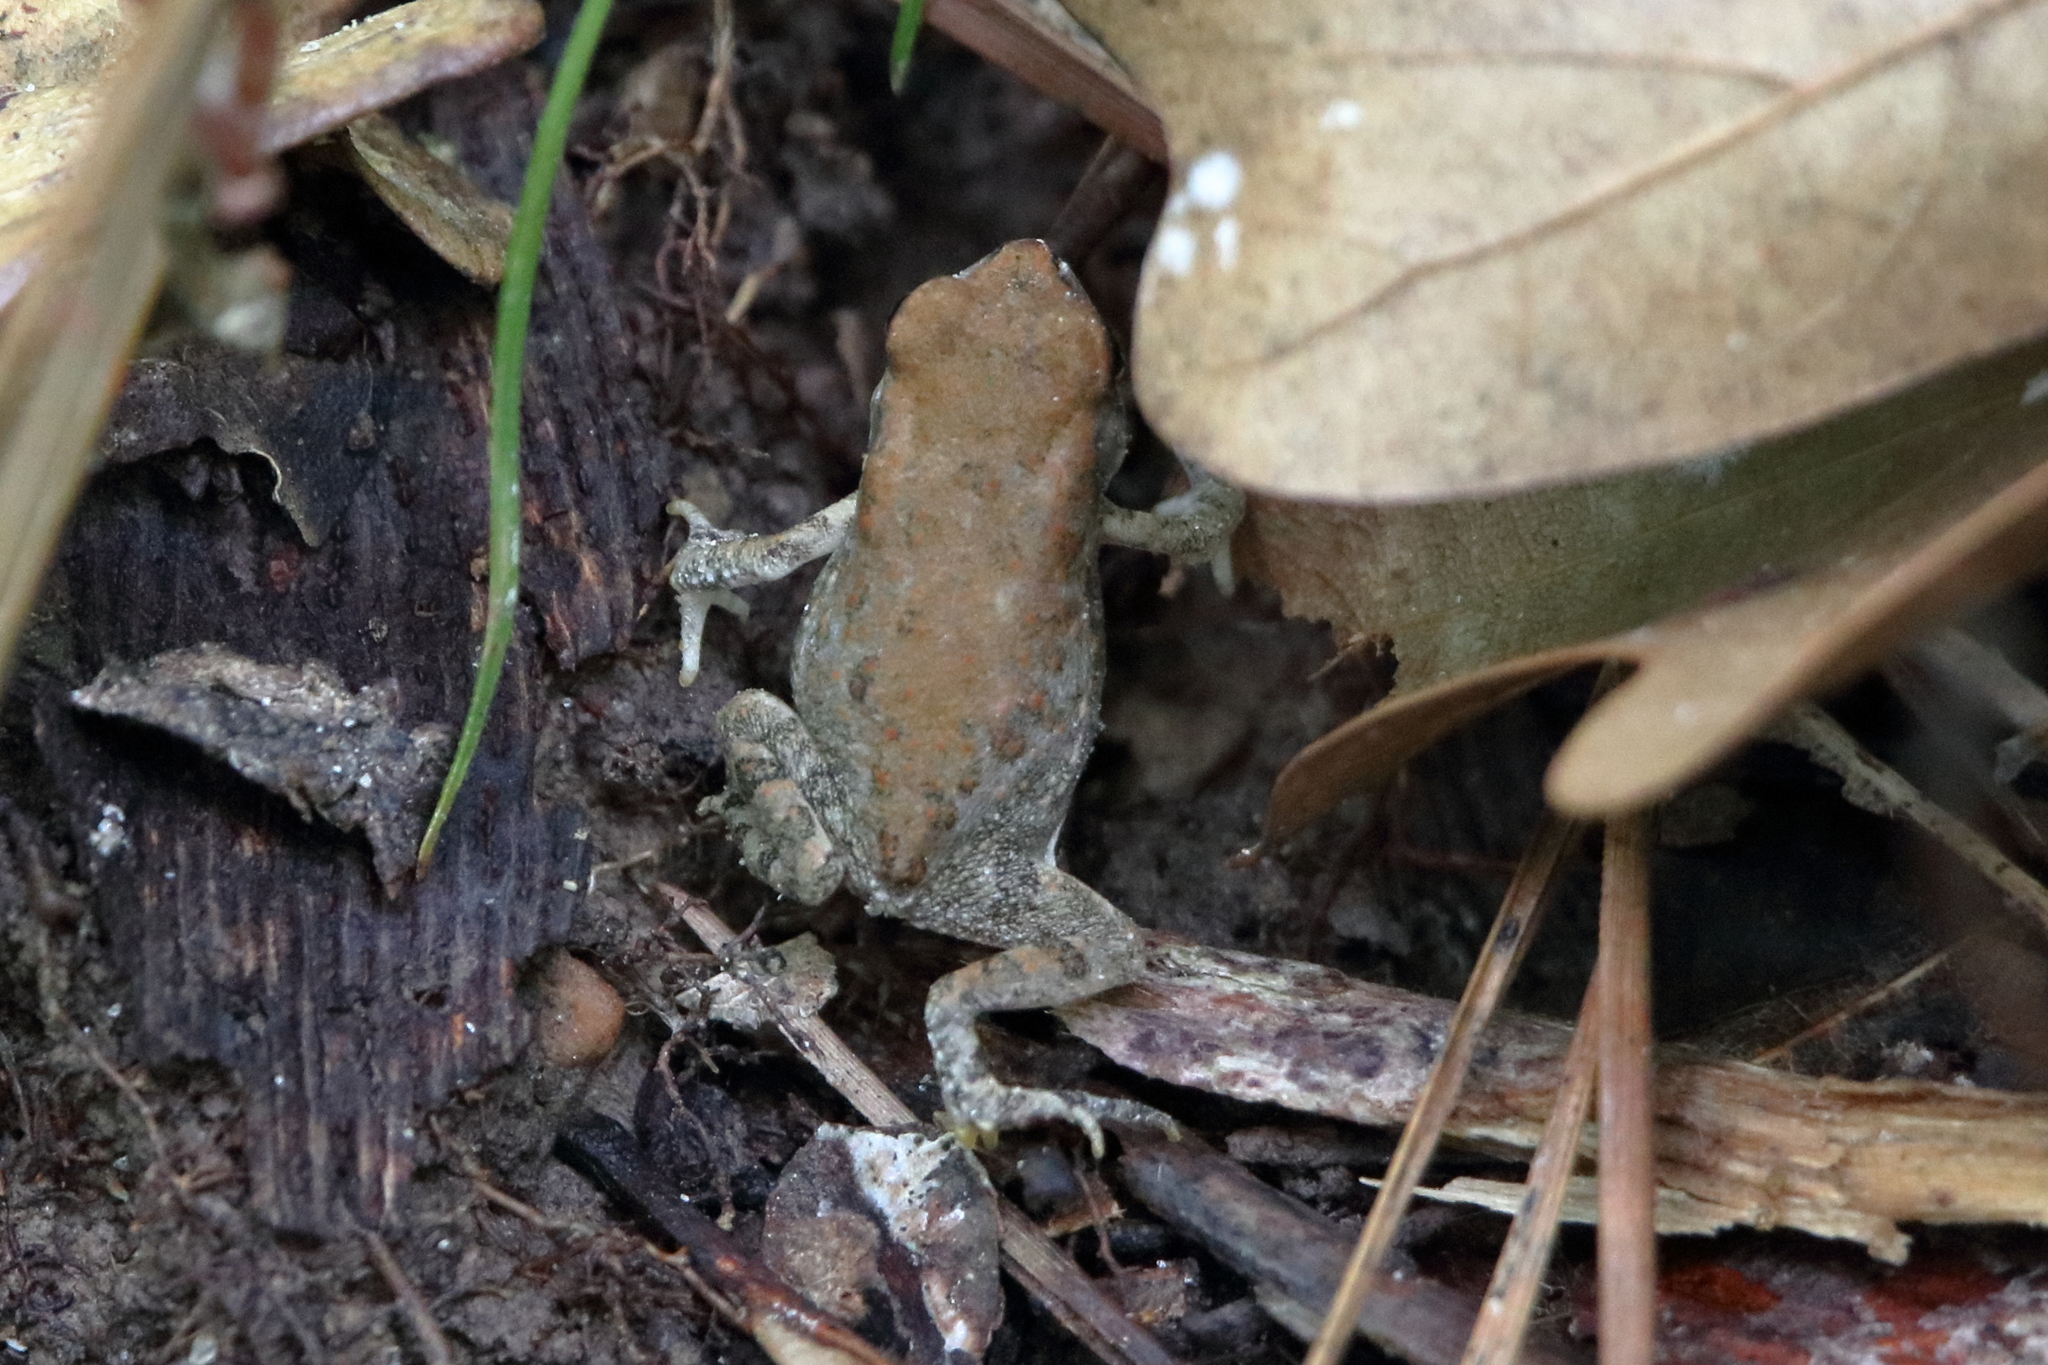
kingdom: Animalia
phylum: Chordata
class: Amphibia
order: Anura
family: Bufonidae
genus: Incilius
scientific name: Incilius nebulifer
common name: Gulf coast toad
